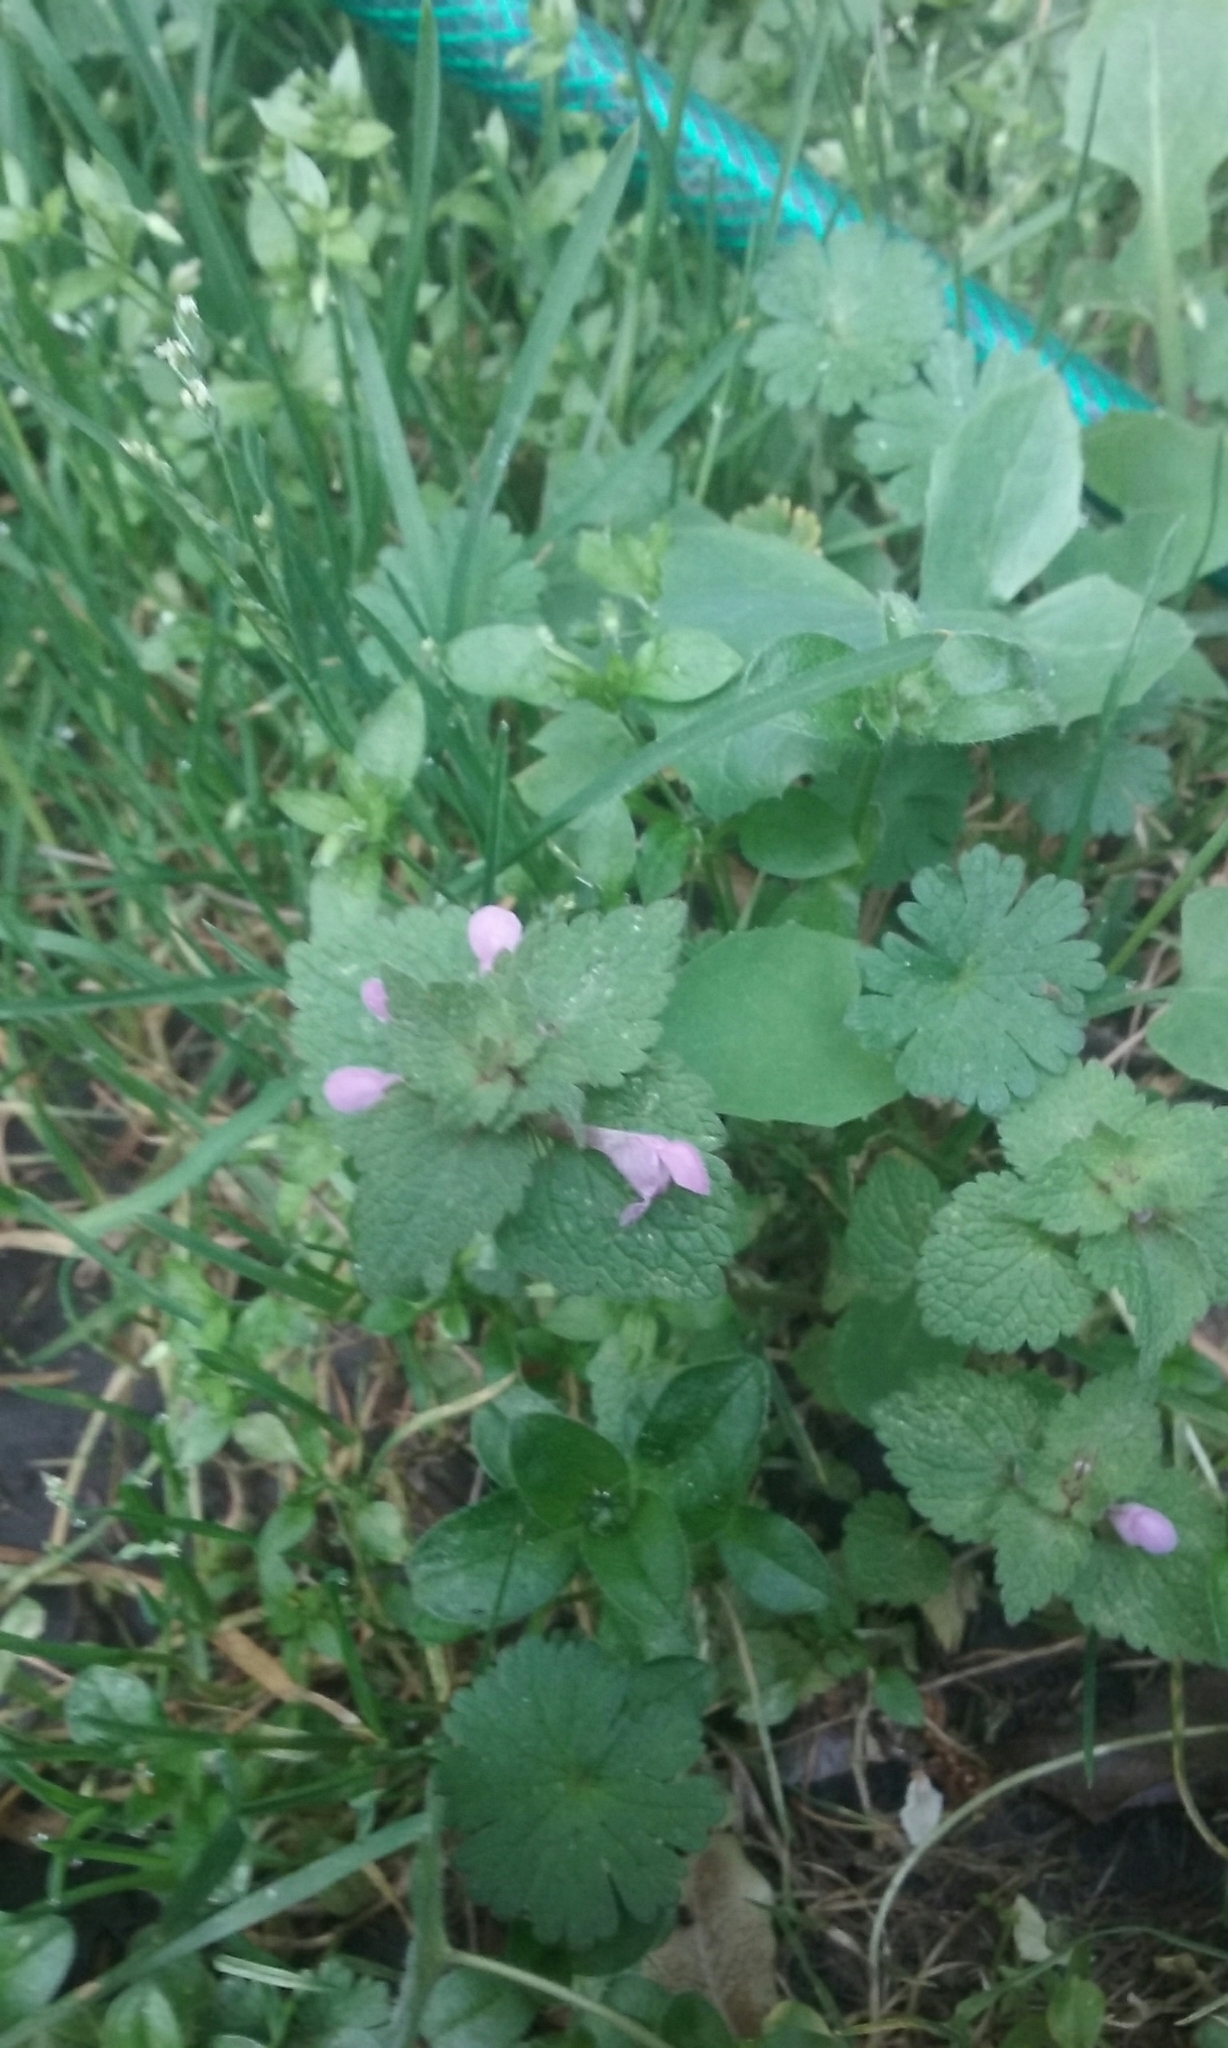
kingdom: Plantae
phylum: Tracheophyta
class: Magnoliopsida
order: Lamiales
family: Lamiaceae
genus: Lamium
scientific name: Lamium purpureum
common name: Red dead-nettle
